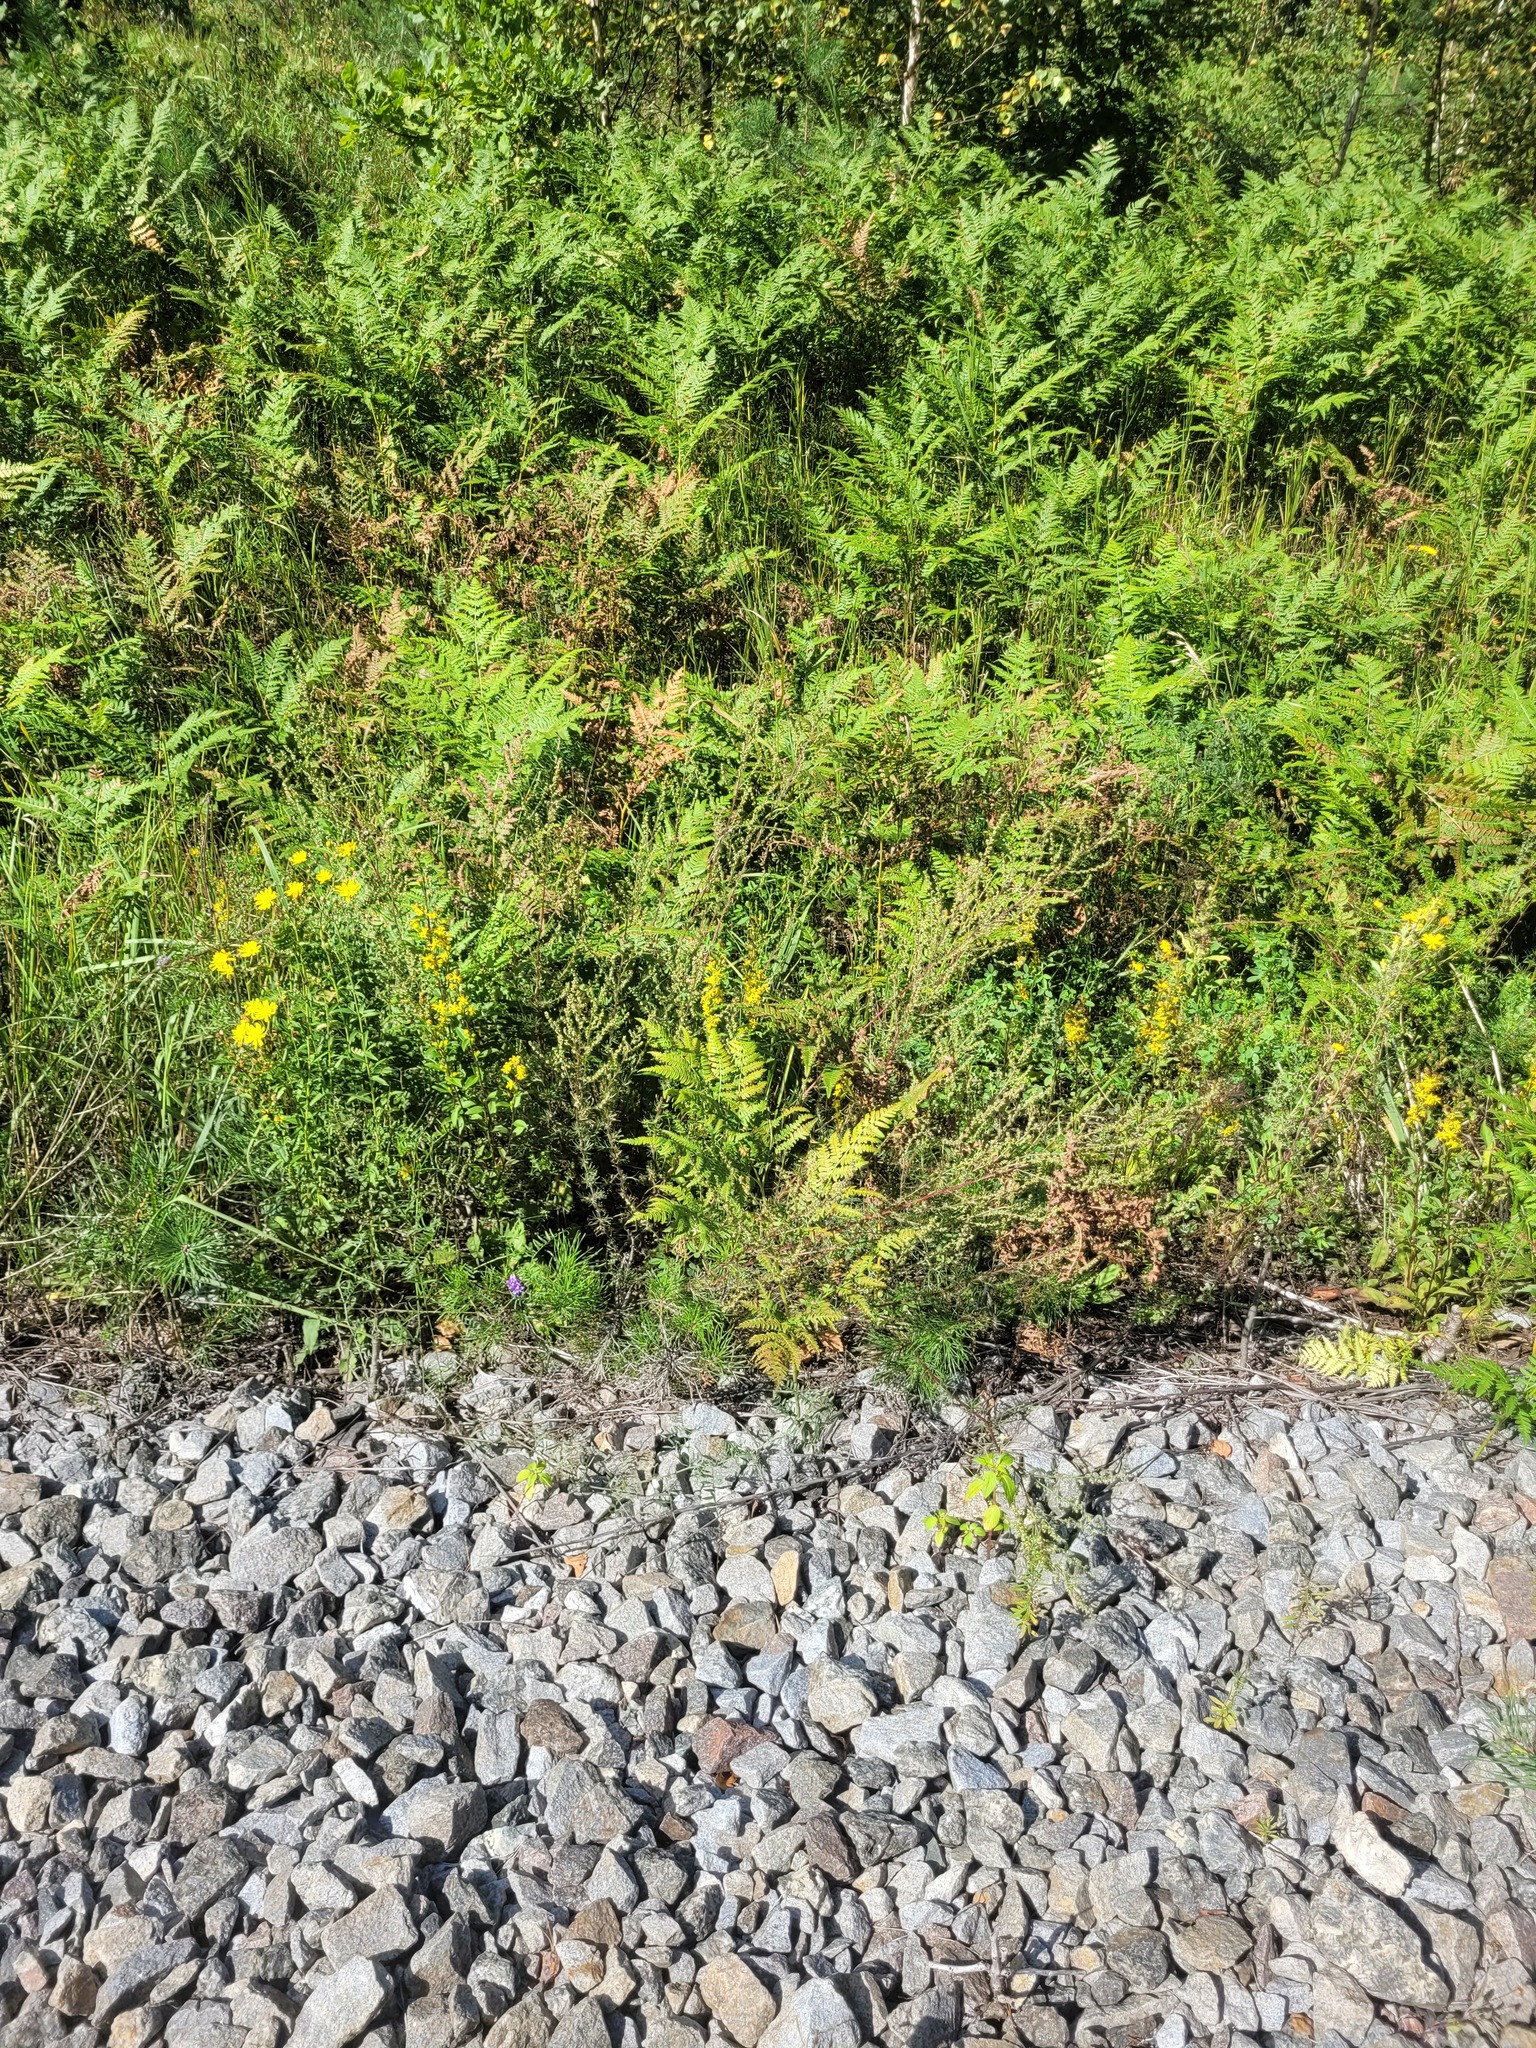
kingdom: Plantae
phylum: Tracheophyta
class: Polypodiopsida
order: Polypodiales
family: Dennstaedtiaceae
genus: Pteridium
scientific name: Pteridium aquilinum
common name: Bracken
